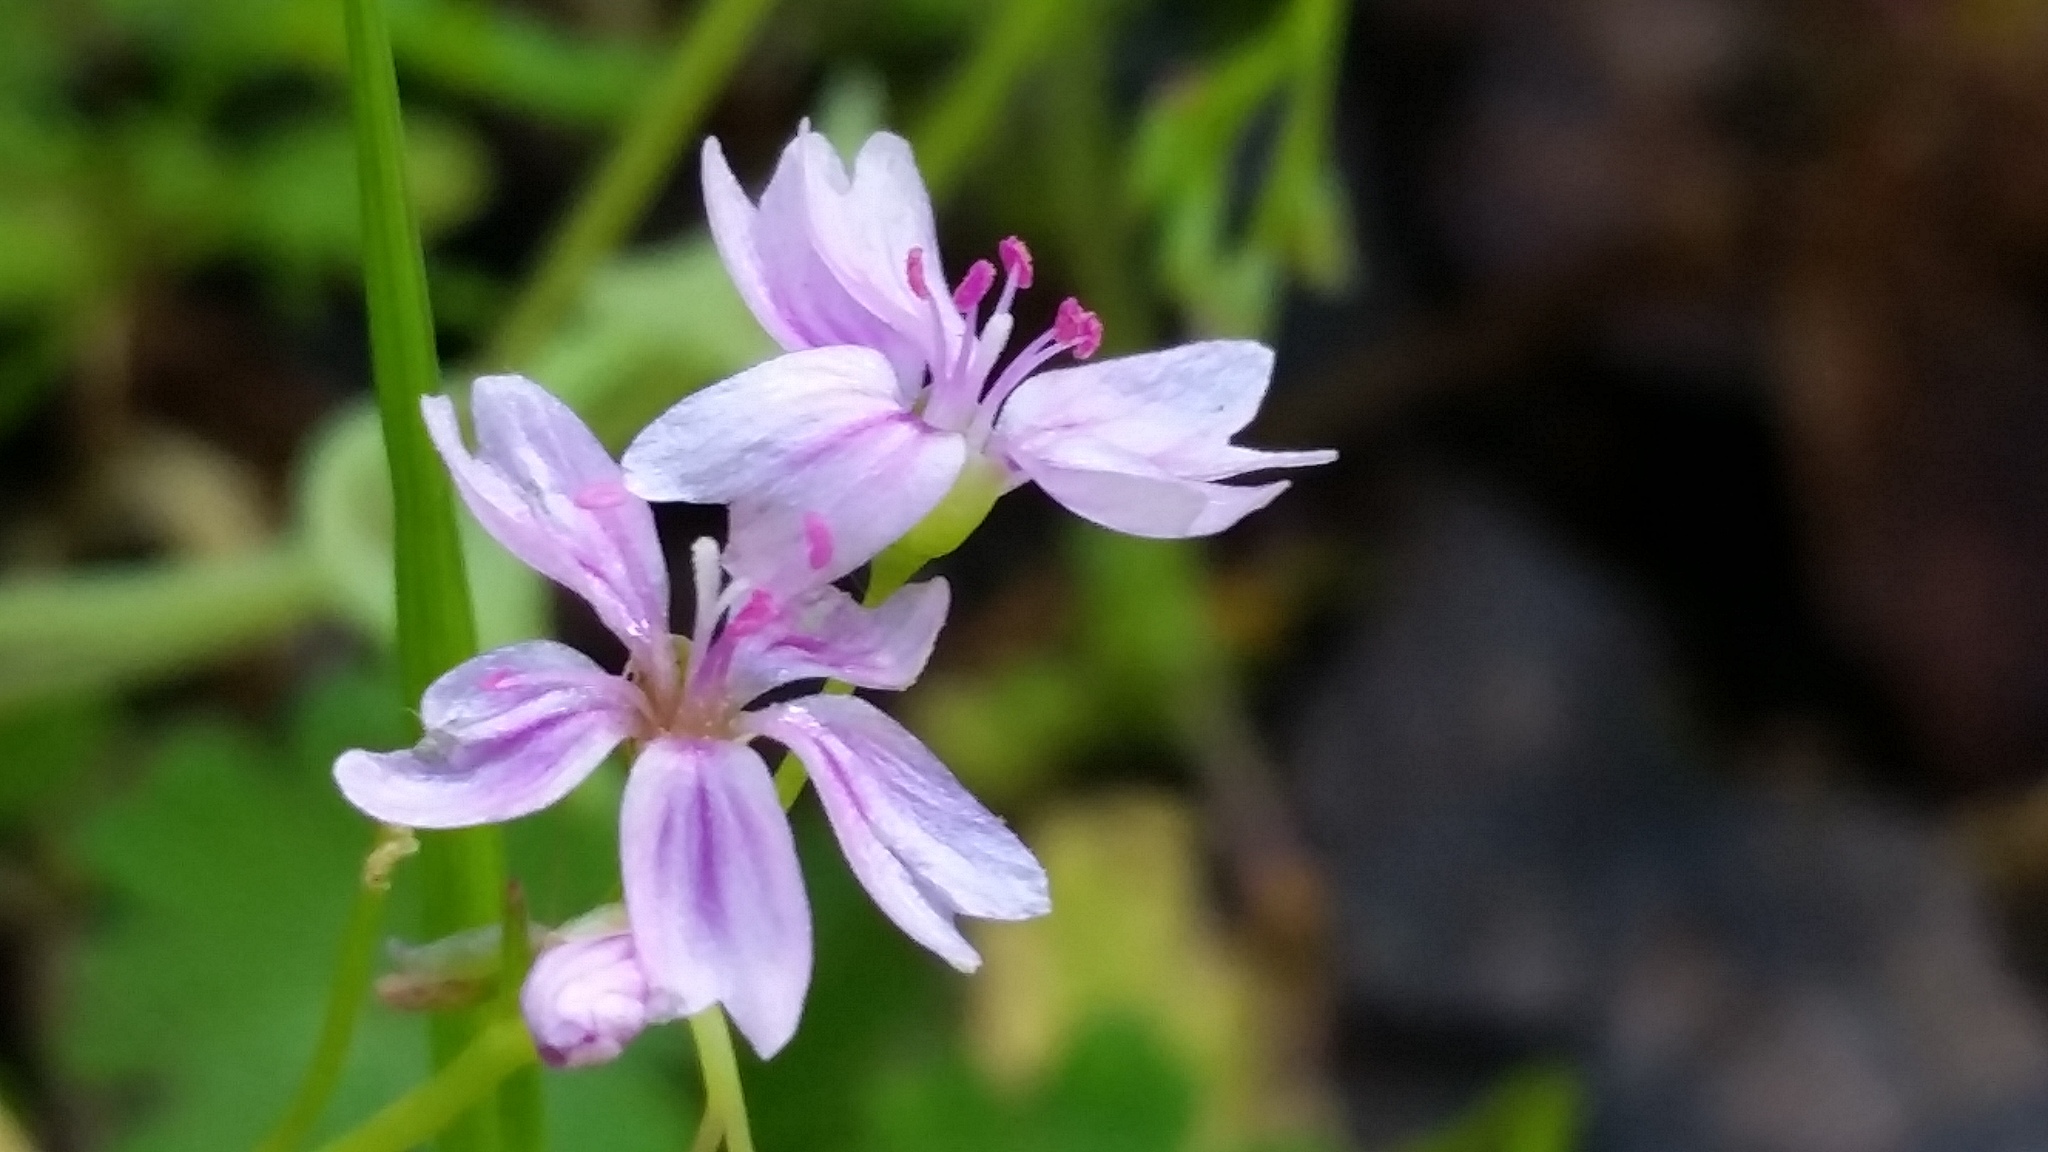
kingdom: Plantae
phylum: Tracheophyta
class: Magnoliopsida
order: Caryophyllales
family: Montiaceae
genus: Claytonia
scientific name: Claytonia gypsophiloides
